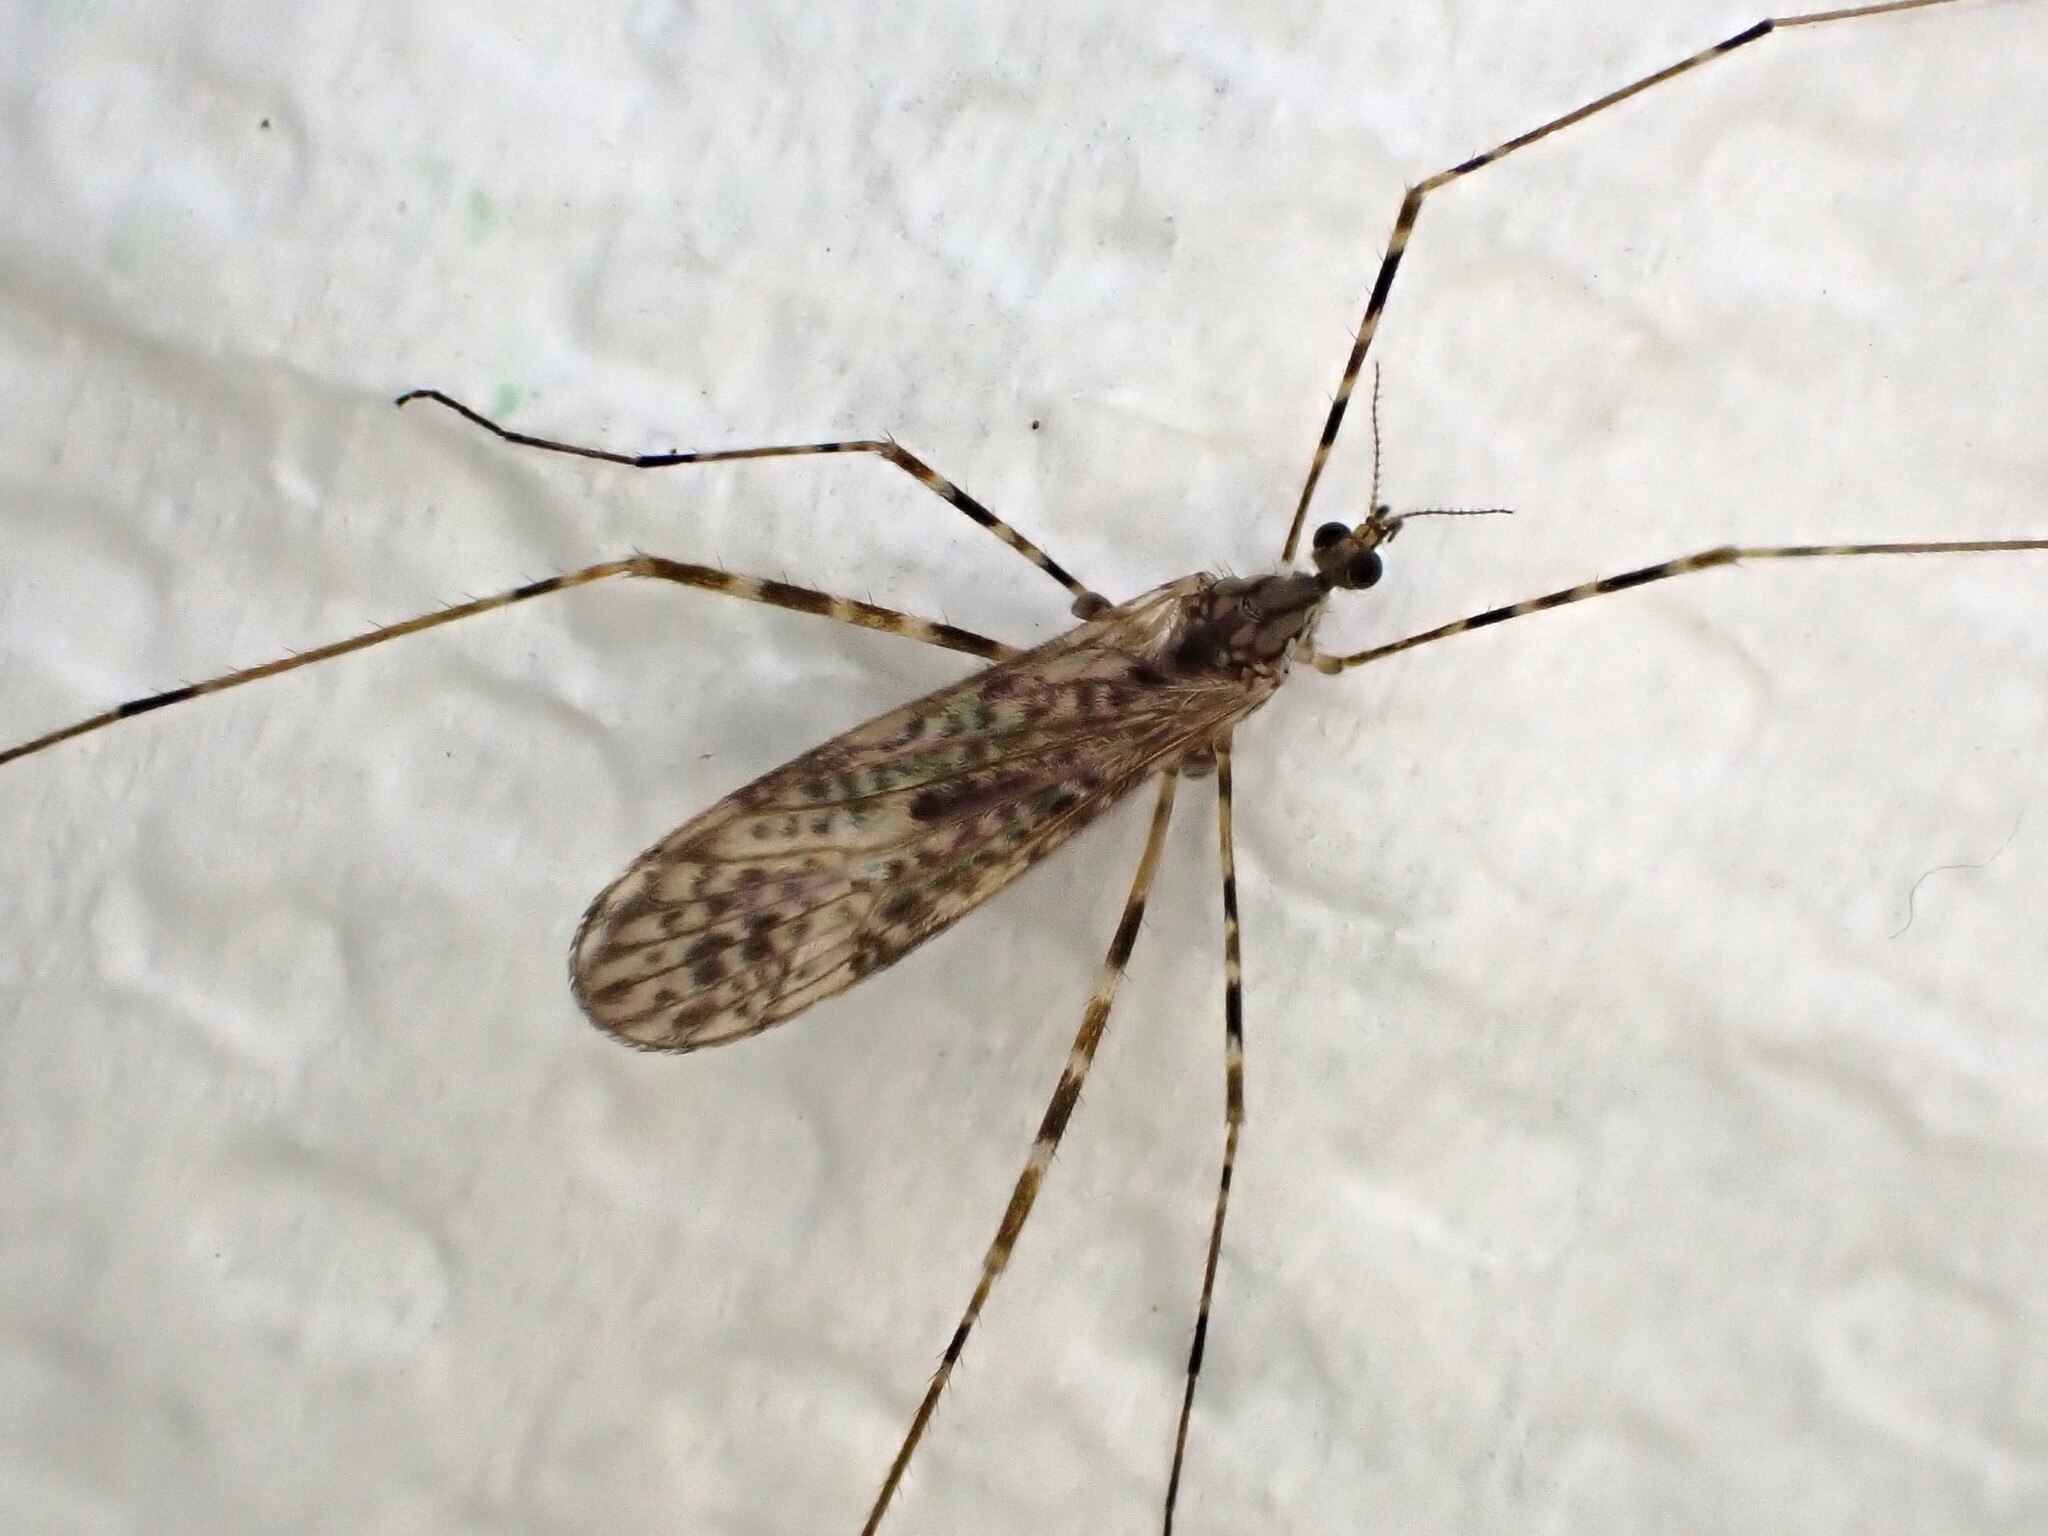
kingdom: Animalia
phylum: Arthropoda
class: Insecta
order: Diptera
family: Limoniidae
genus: Amphineurus
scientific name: Amphineurus hudsoni
